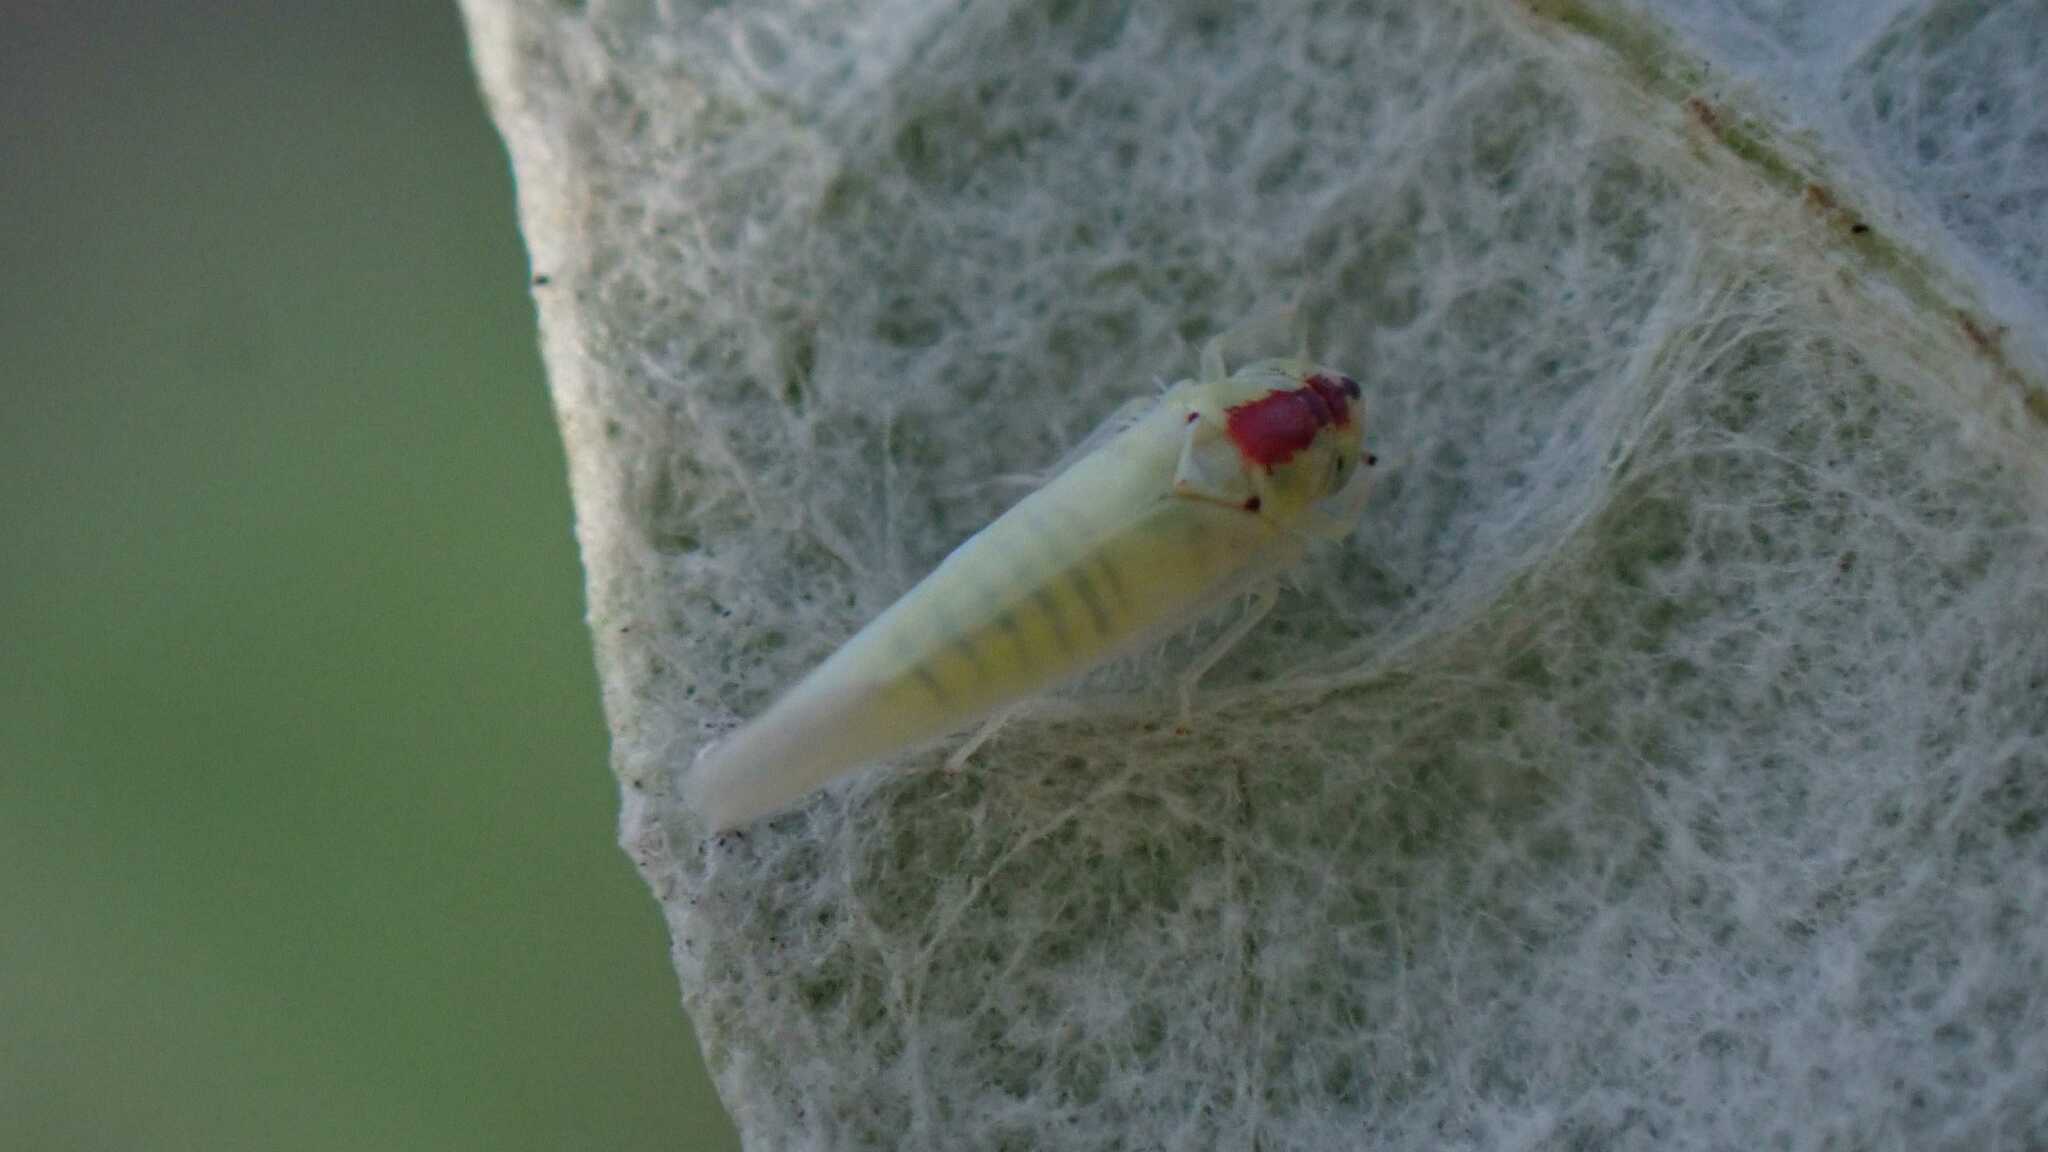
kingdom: Animalia
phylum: Arthropoda
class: Insecta
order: Hemiptera
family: Cicadellidae
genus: Zygina
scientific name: Zygina nivea
